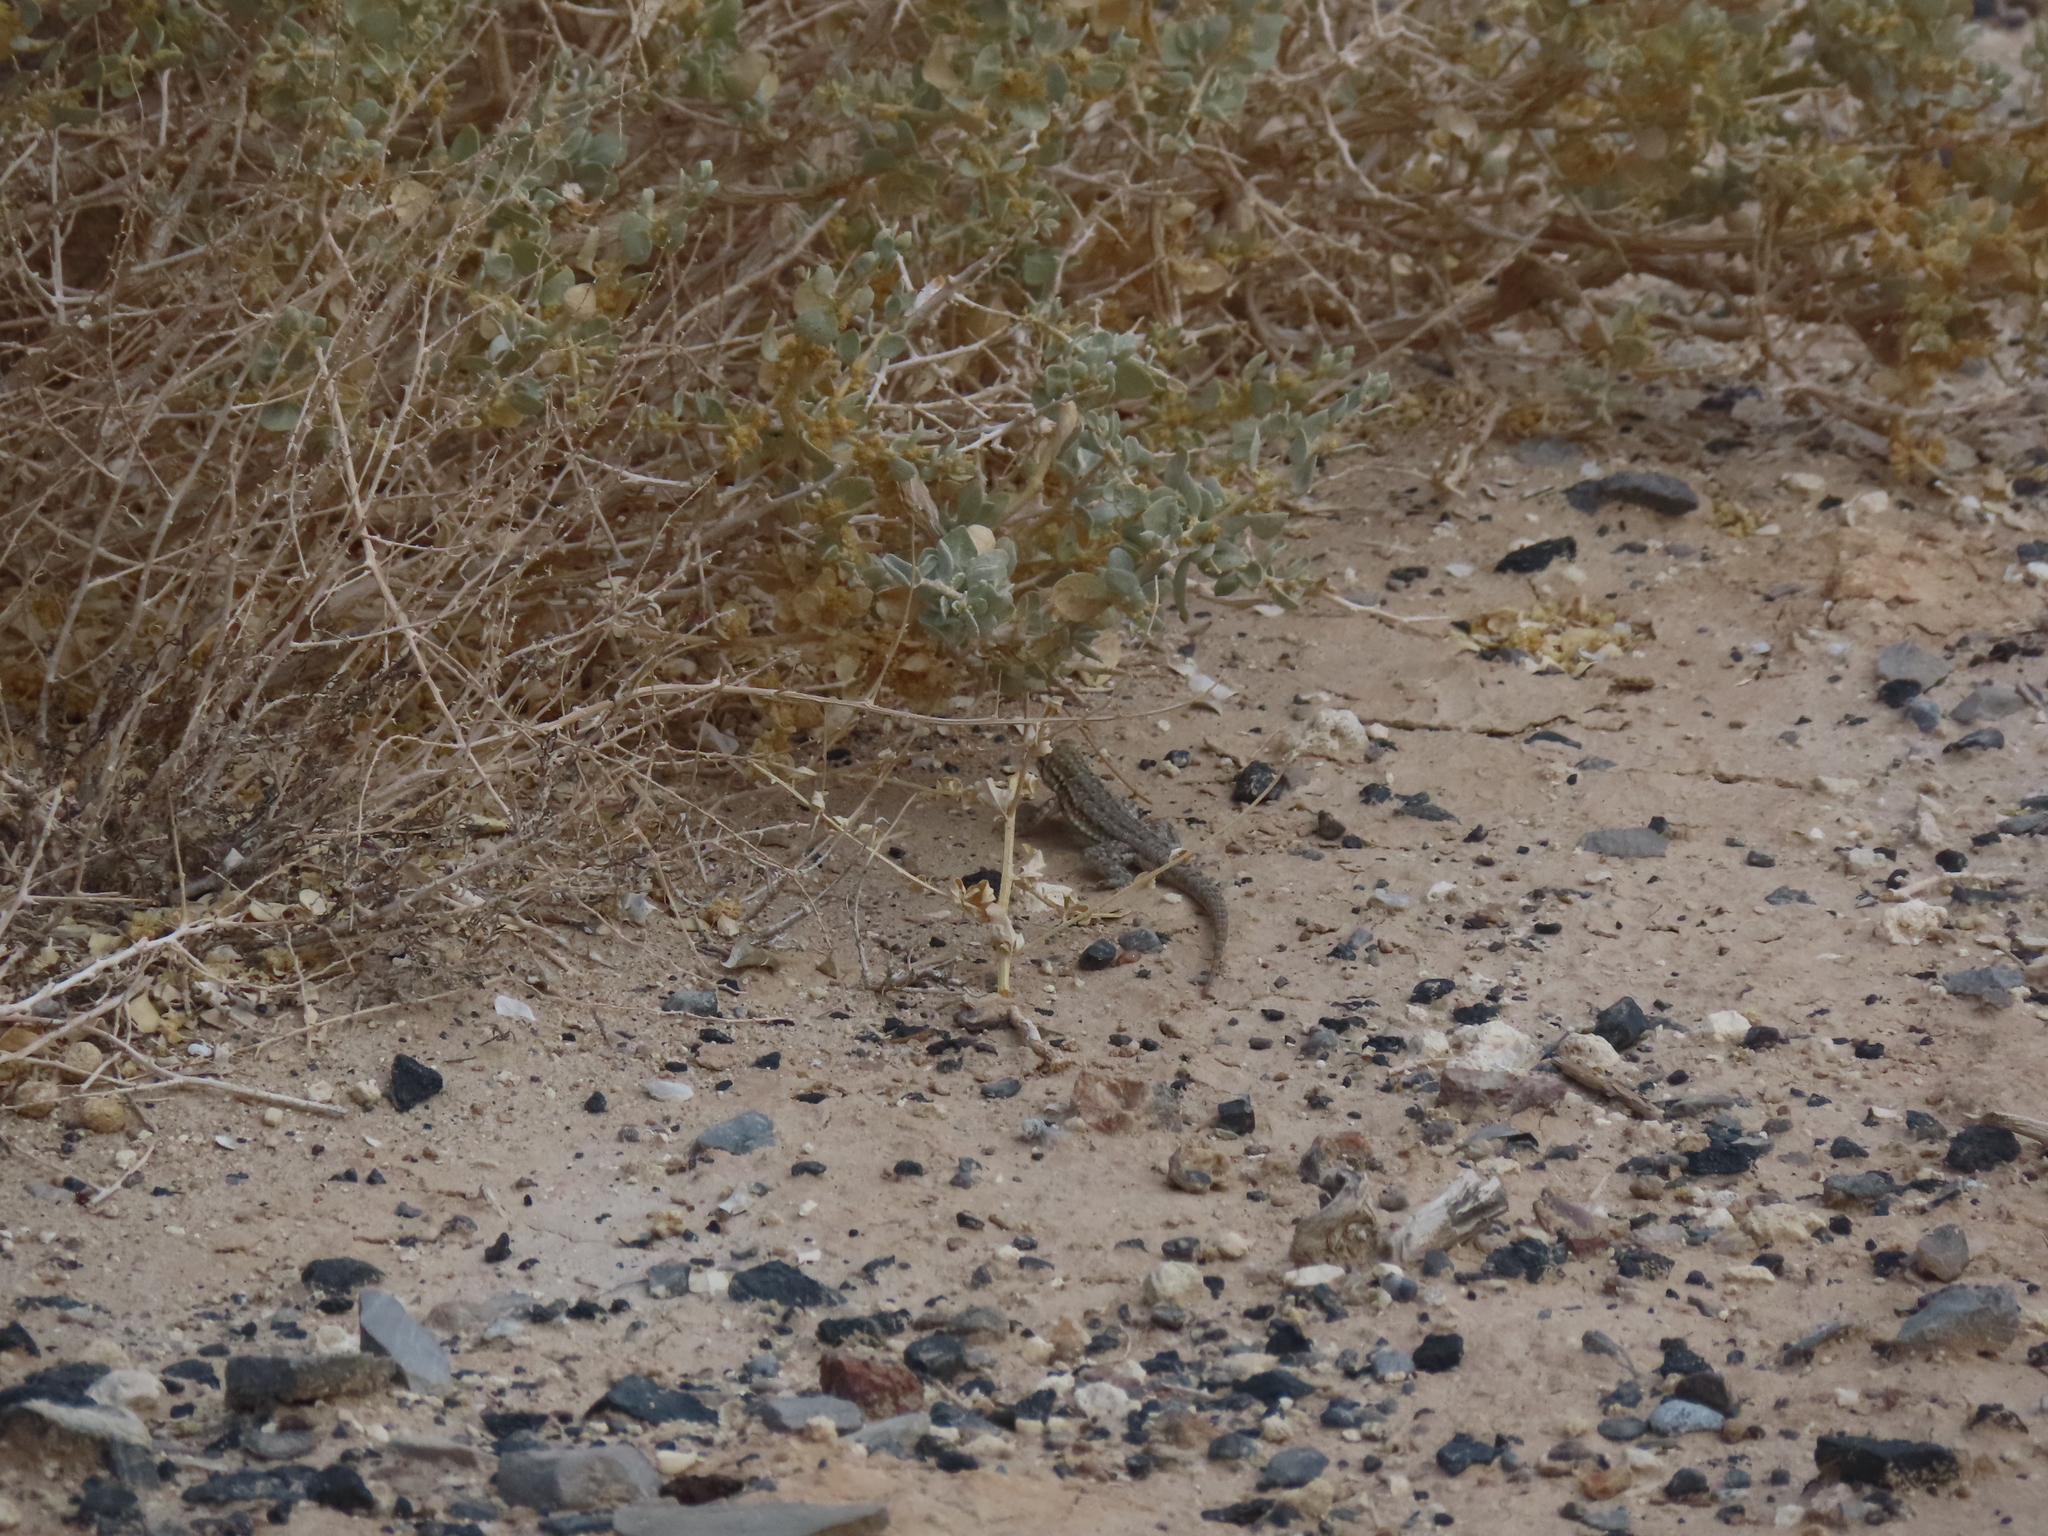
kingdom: Animalia
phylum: Chordata
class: Squamata
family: Phrynosomatidae
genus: Uta
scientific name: Uta stansburiana
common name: Side-blotched lizard
